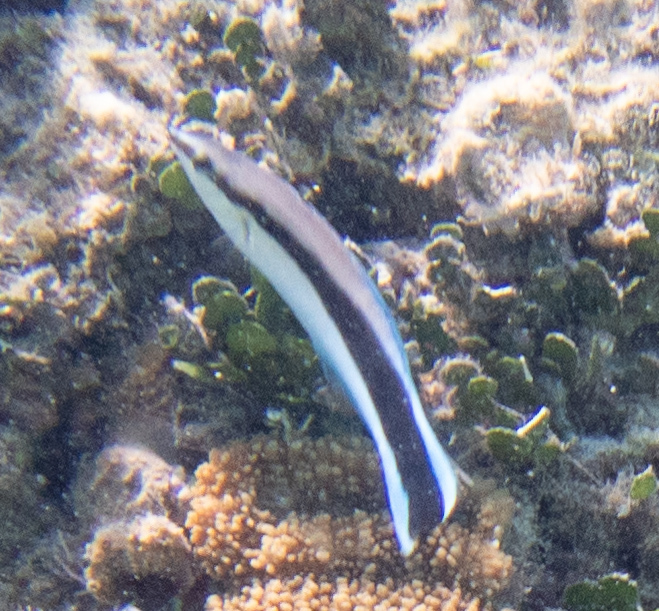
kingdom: Animalia
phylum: Chordata
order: Perciformes
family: Labridae
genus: Labroides
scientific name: Labroides dimidiatus
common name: Blue diesel wrasse
